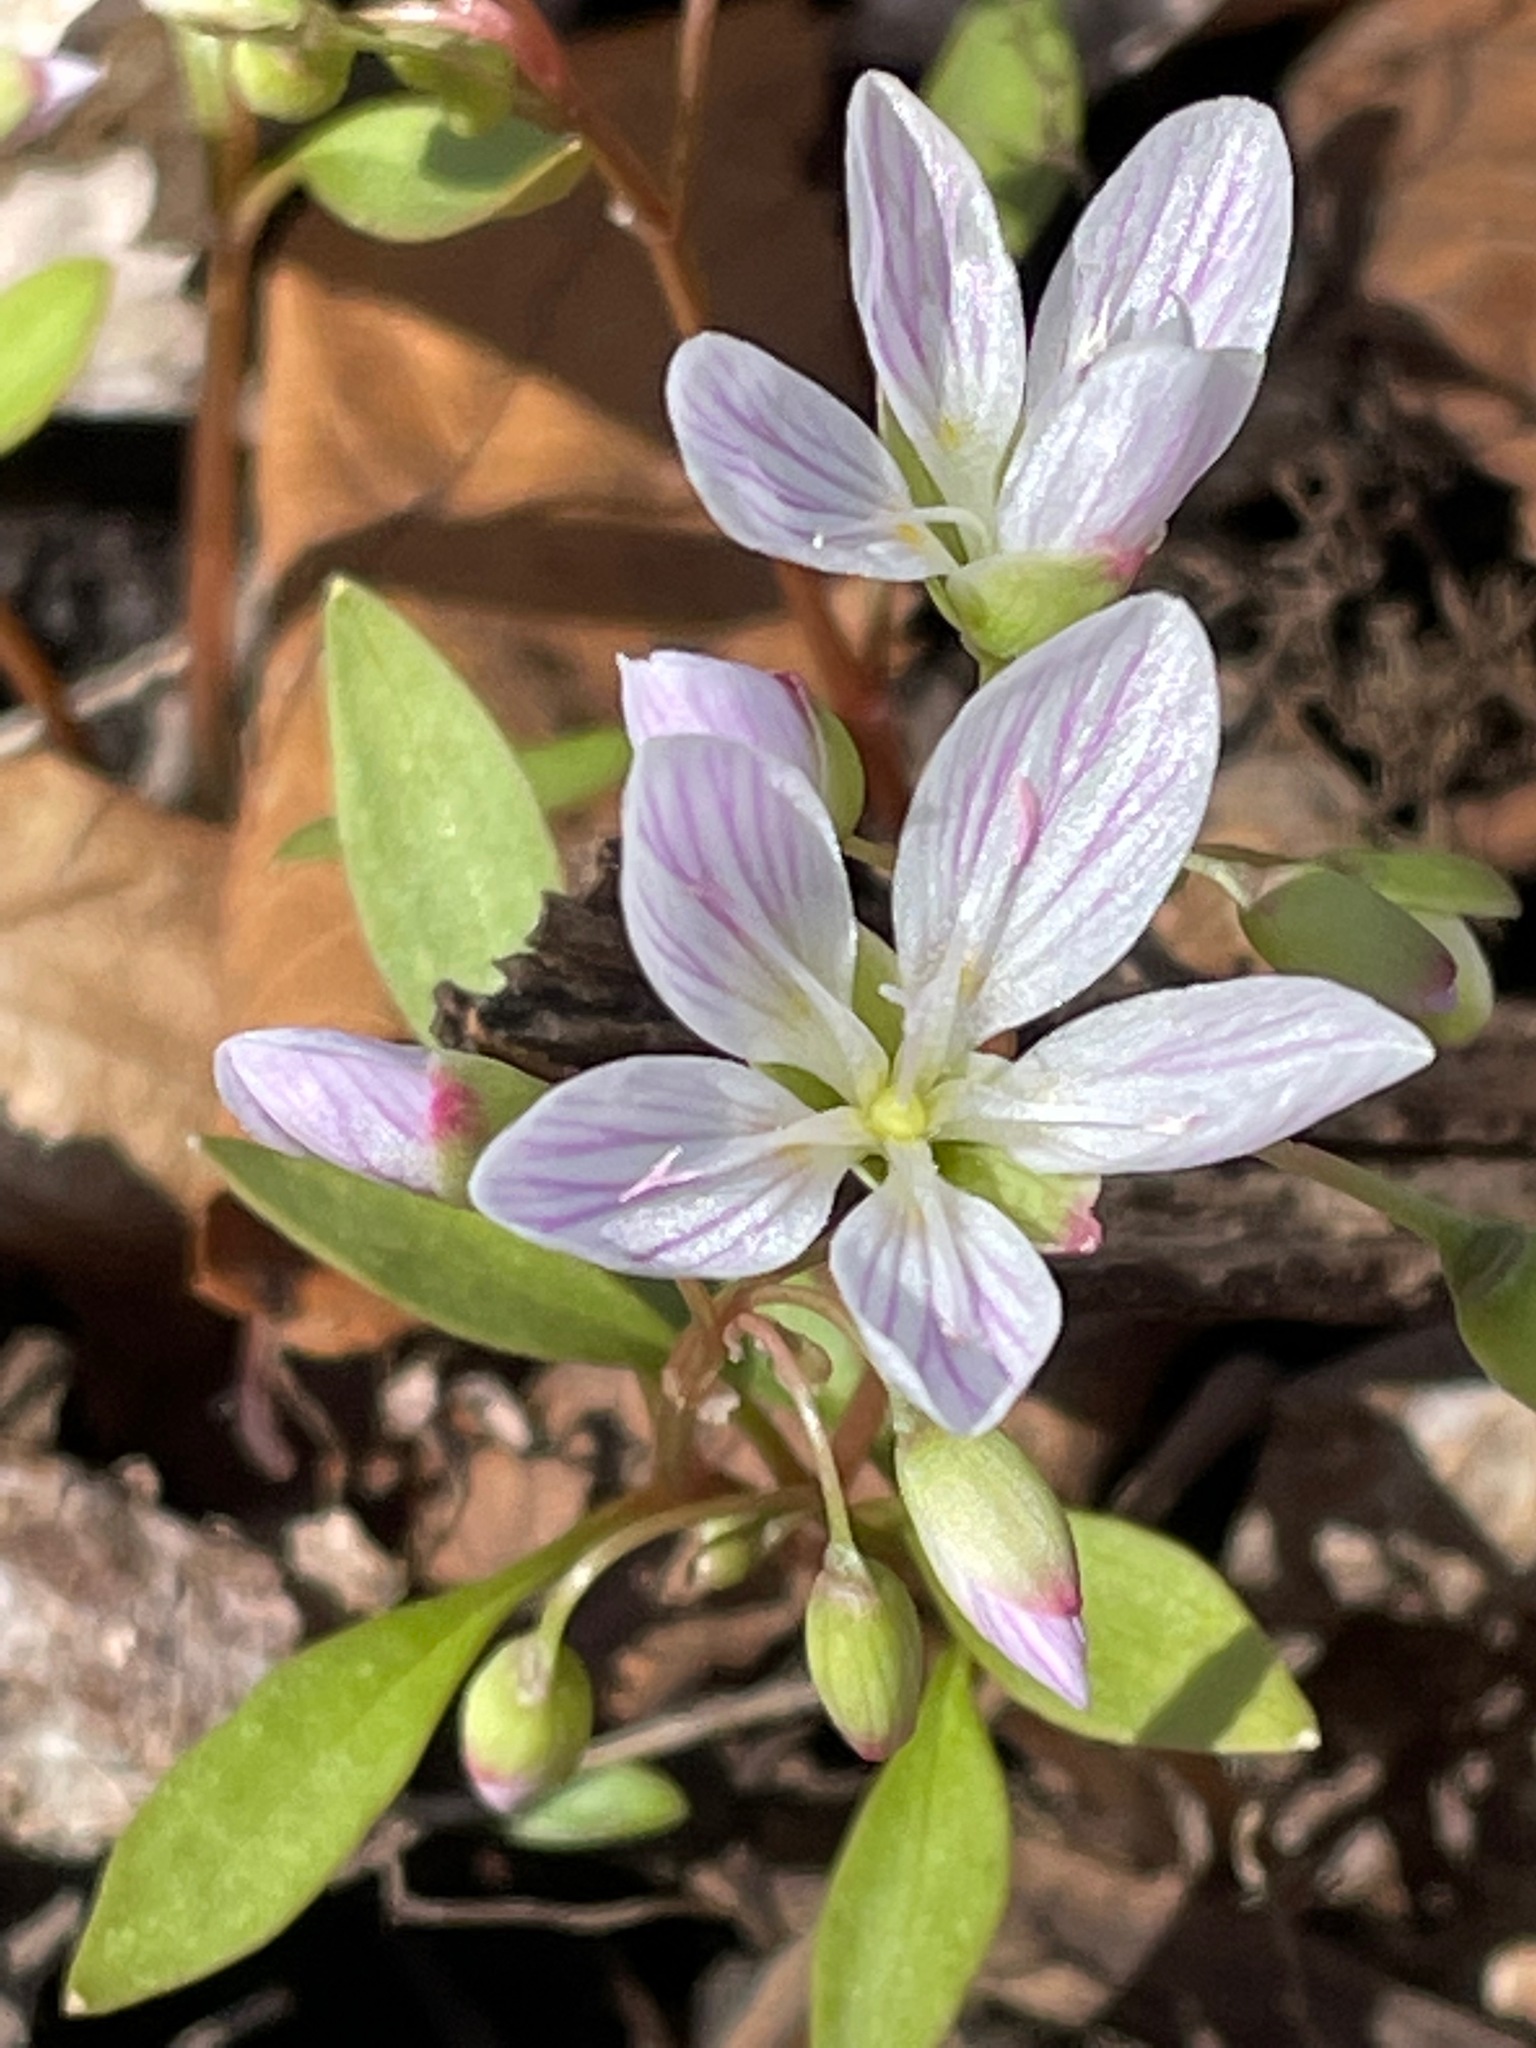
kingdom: Plantae
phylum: Tracheophyta
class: Magnoliopsida
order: Caryophyllales
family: Montiaceae
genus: Claytonia
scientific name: Claytonia caroliniana
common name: Carolina spring beauty
